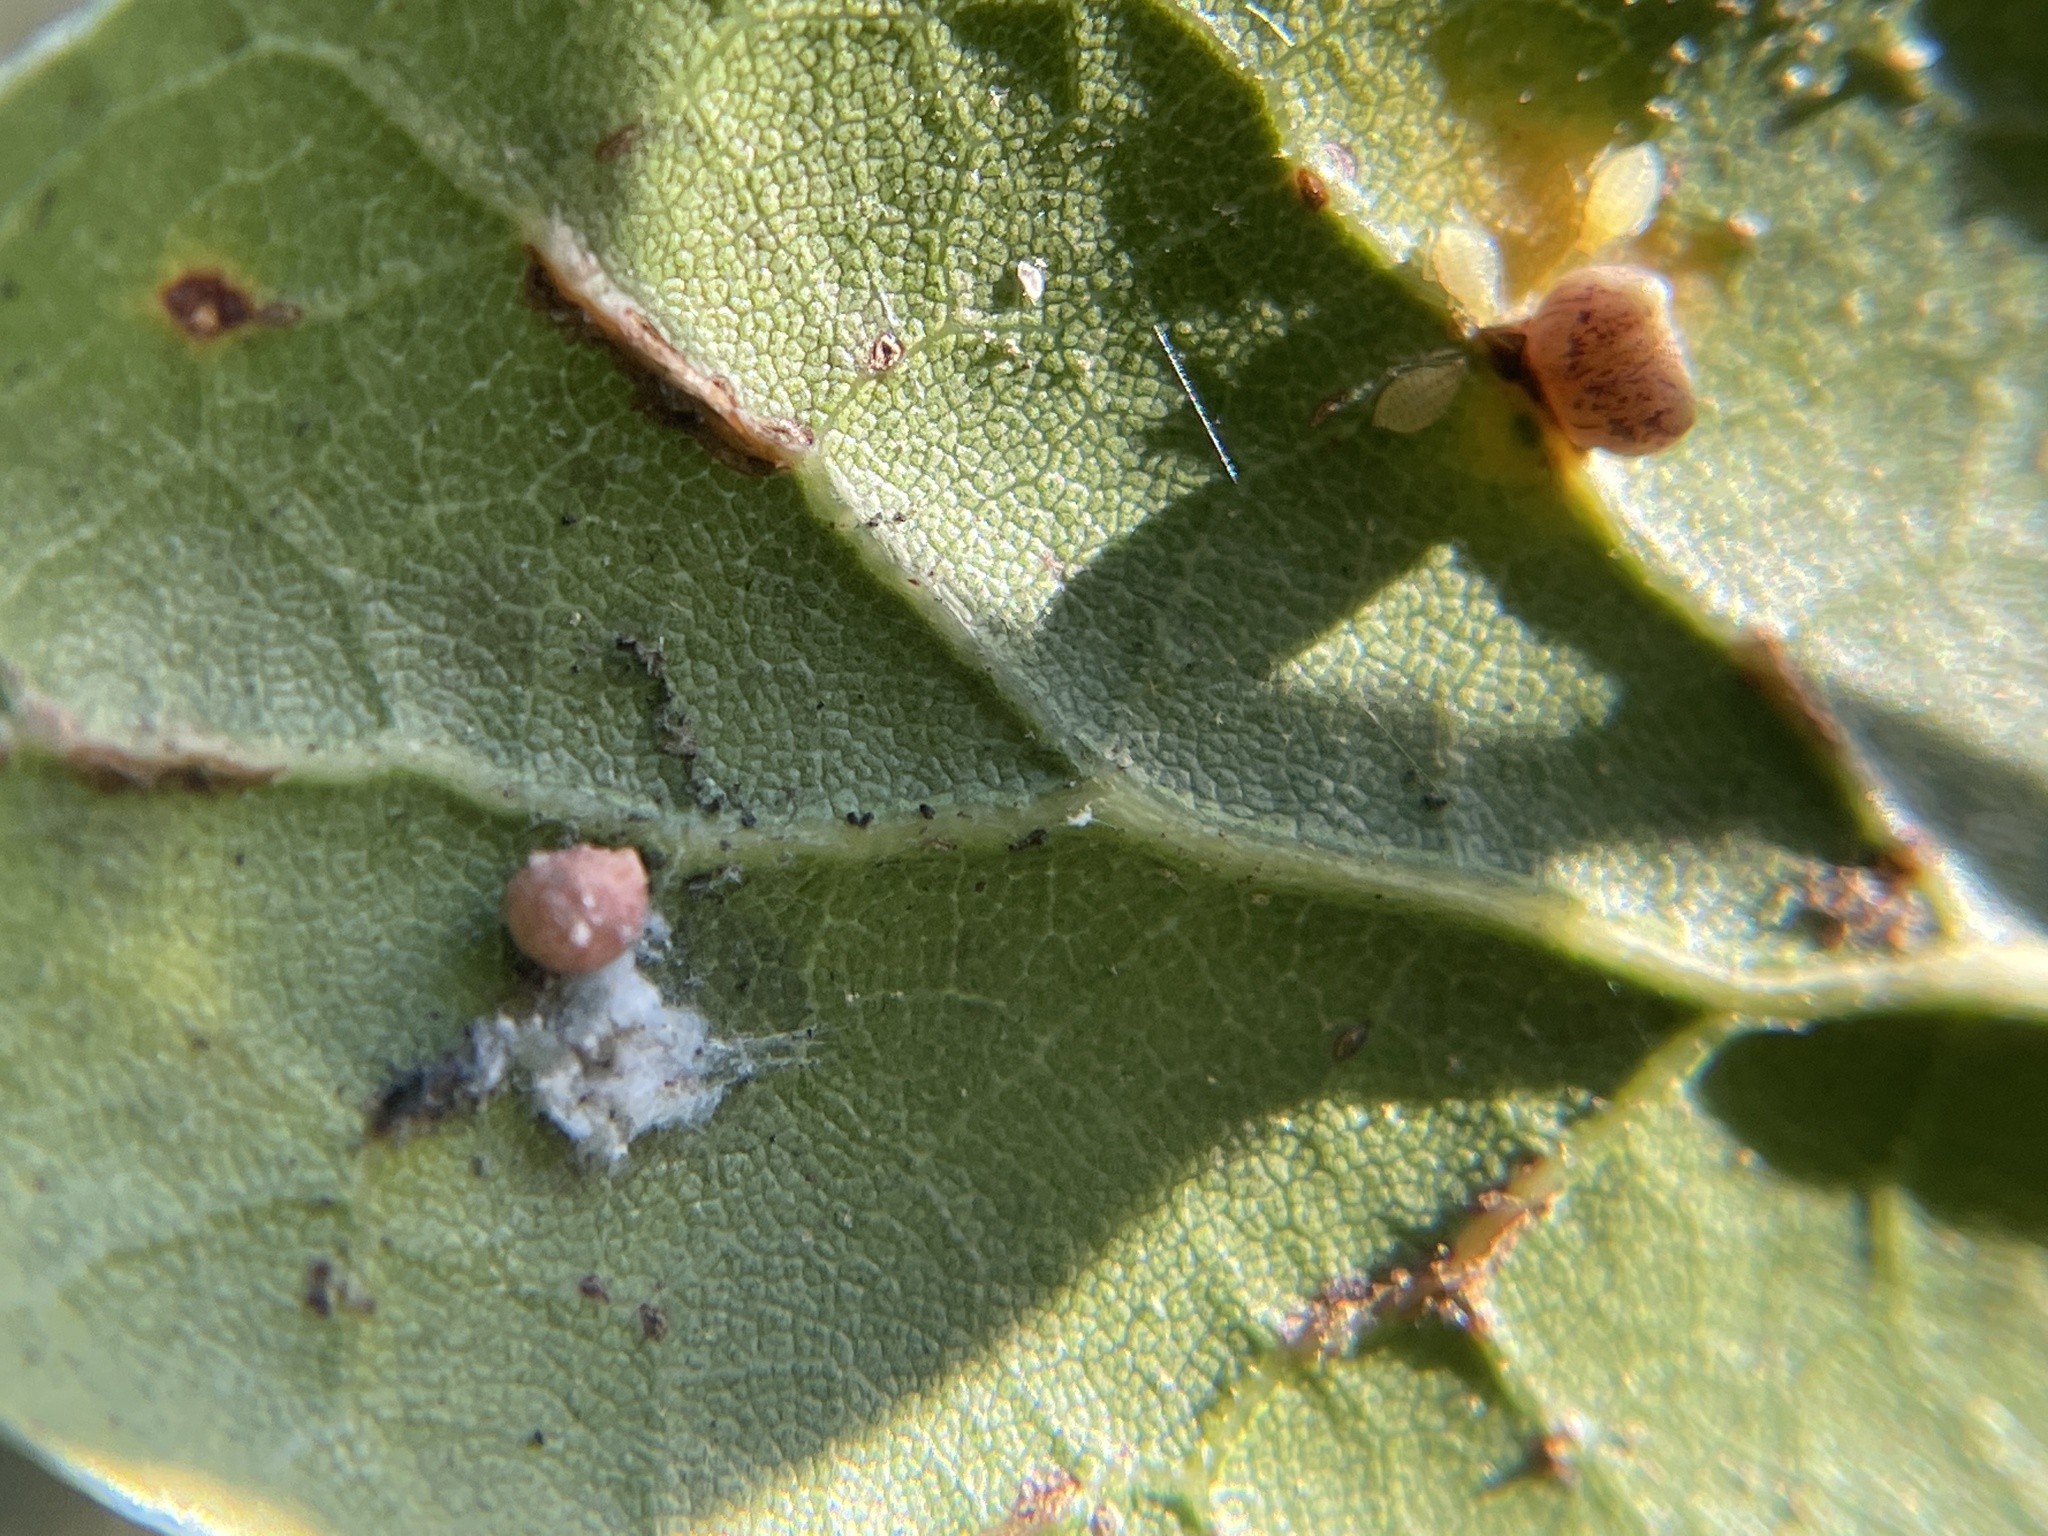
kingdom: Animalia
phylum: Arthropoda
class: Insecta
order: Hymenoptera
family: Cynipidae
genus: Dryocosmus
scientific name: Dryocosmus
